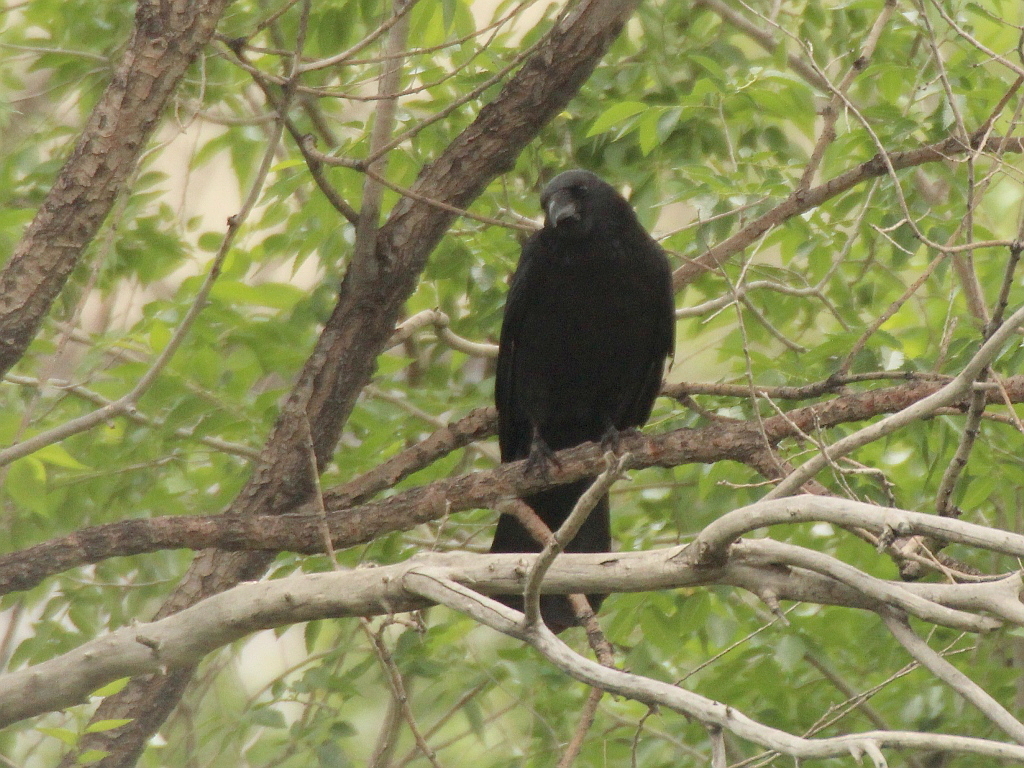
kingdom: Animalia
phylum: Chordata
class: Aves
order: Passeriformes
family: Corvidae
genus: Corvus
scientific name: Corvus corone
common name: Carrion crow
